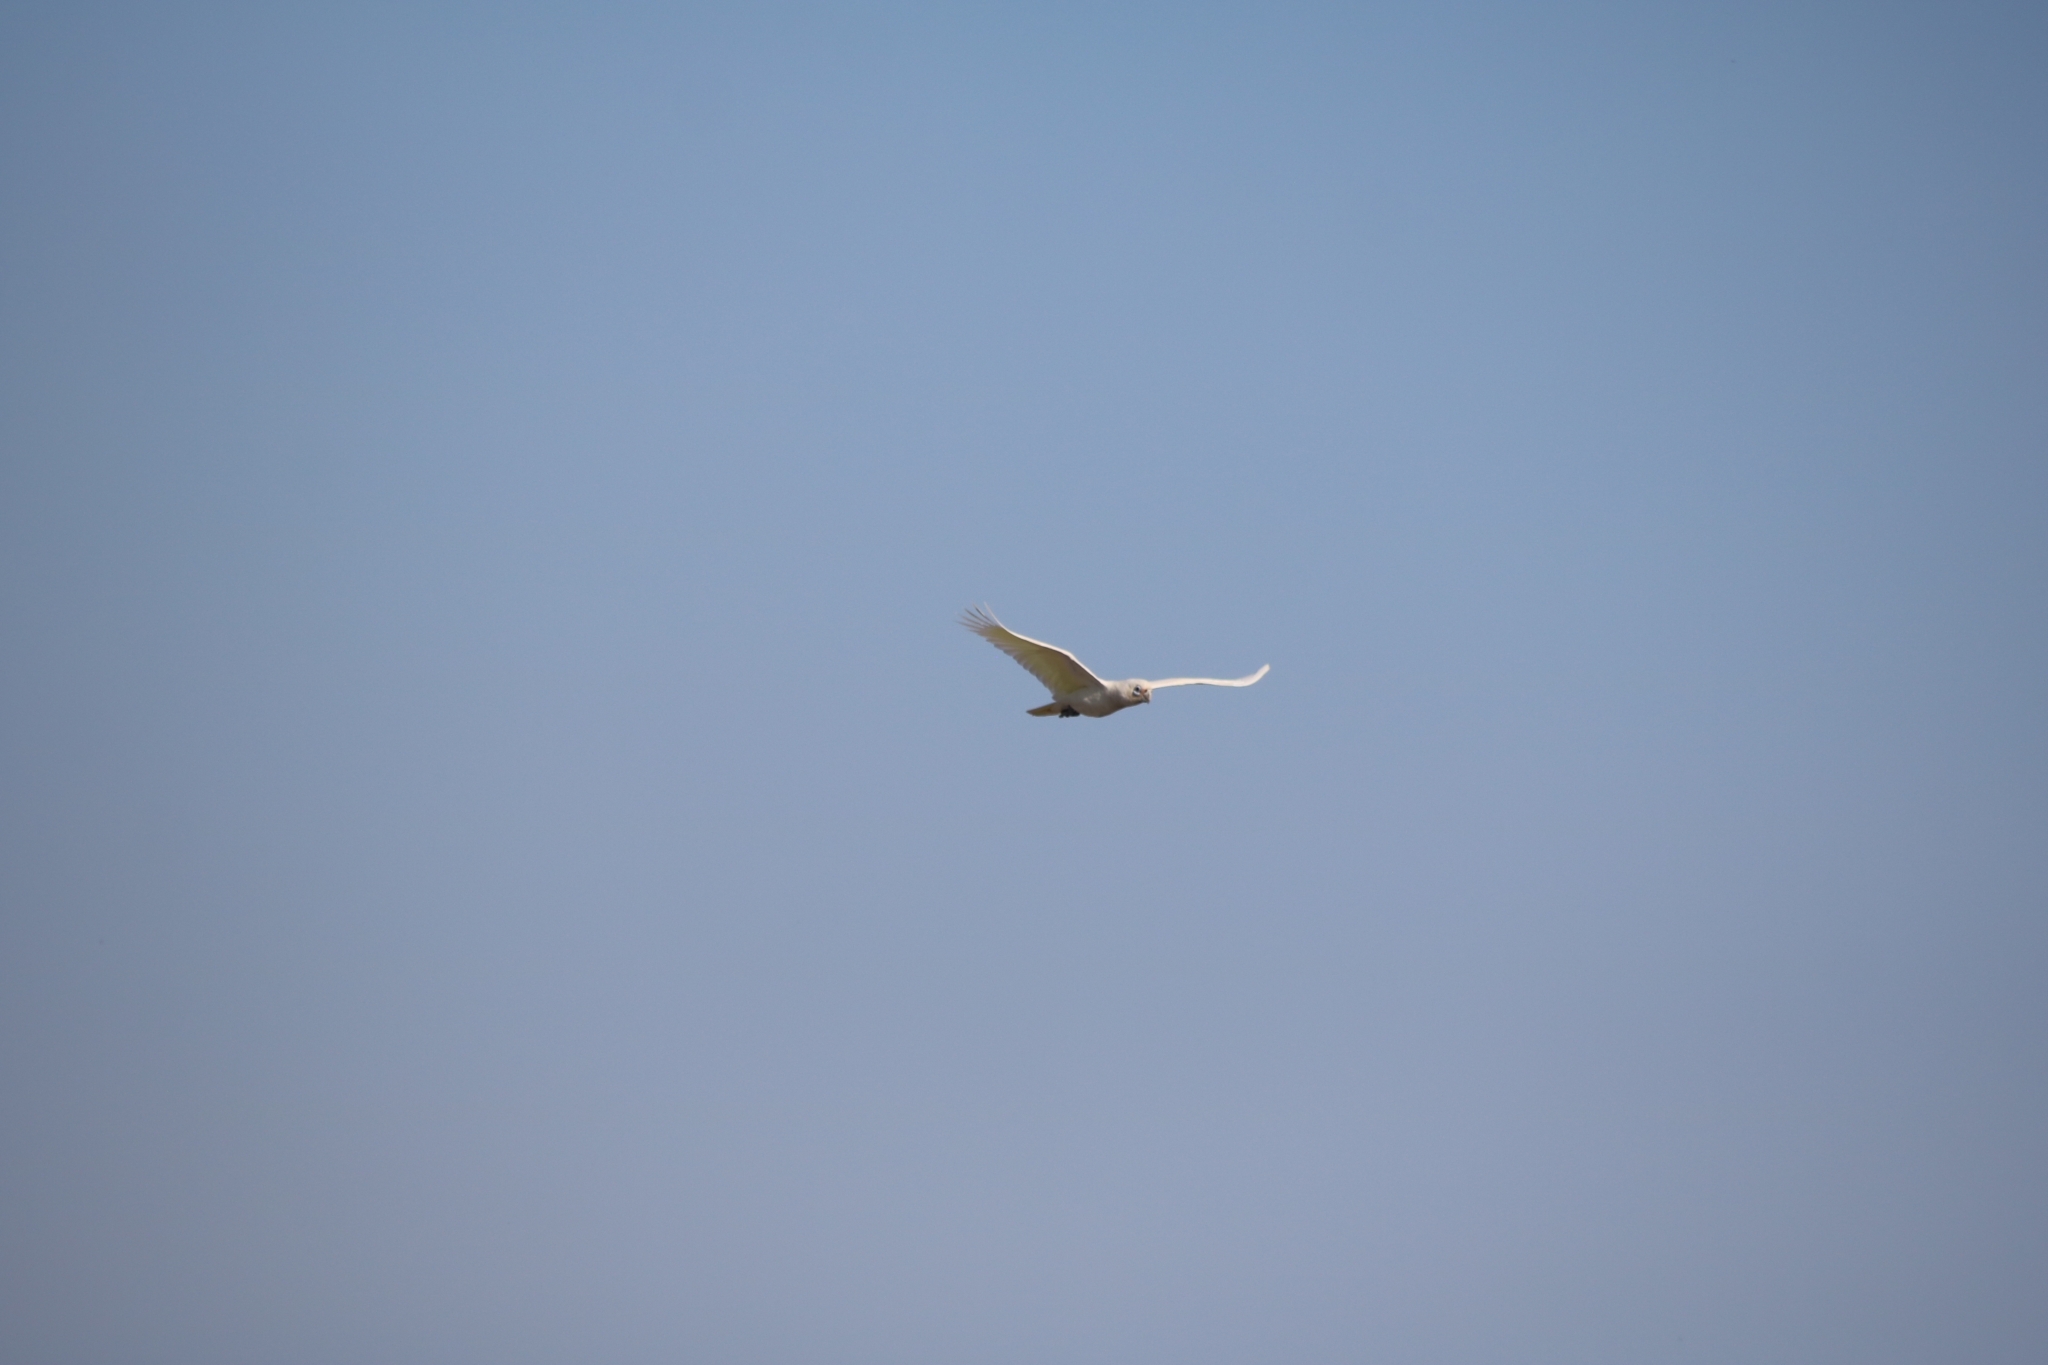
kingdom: Animalia
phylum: Chordata
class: Aves
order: Psittaciformes
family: Psittacidae
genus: Cacatua
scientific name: Cacatua sanguinea
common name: Little corella
